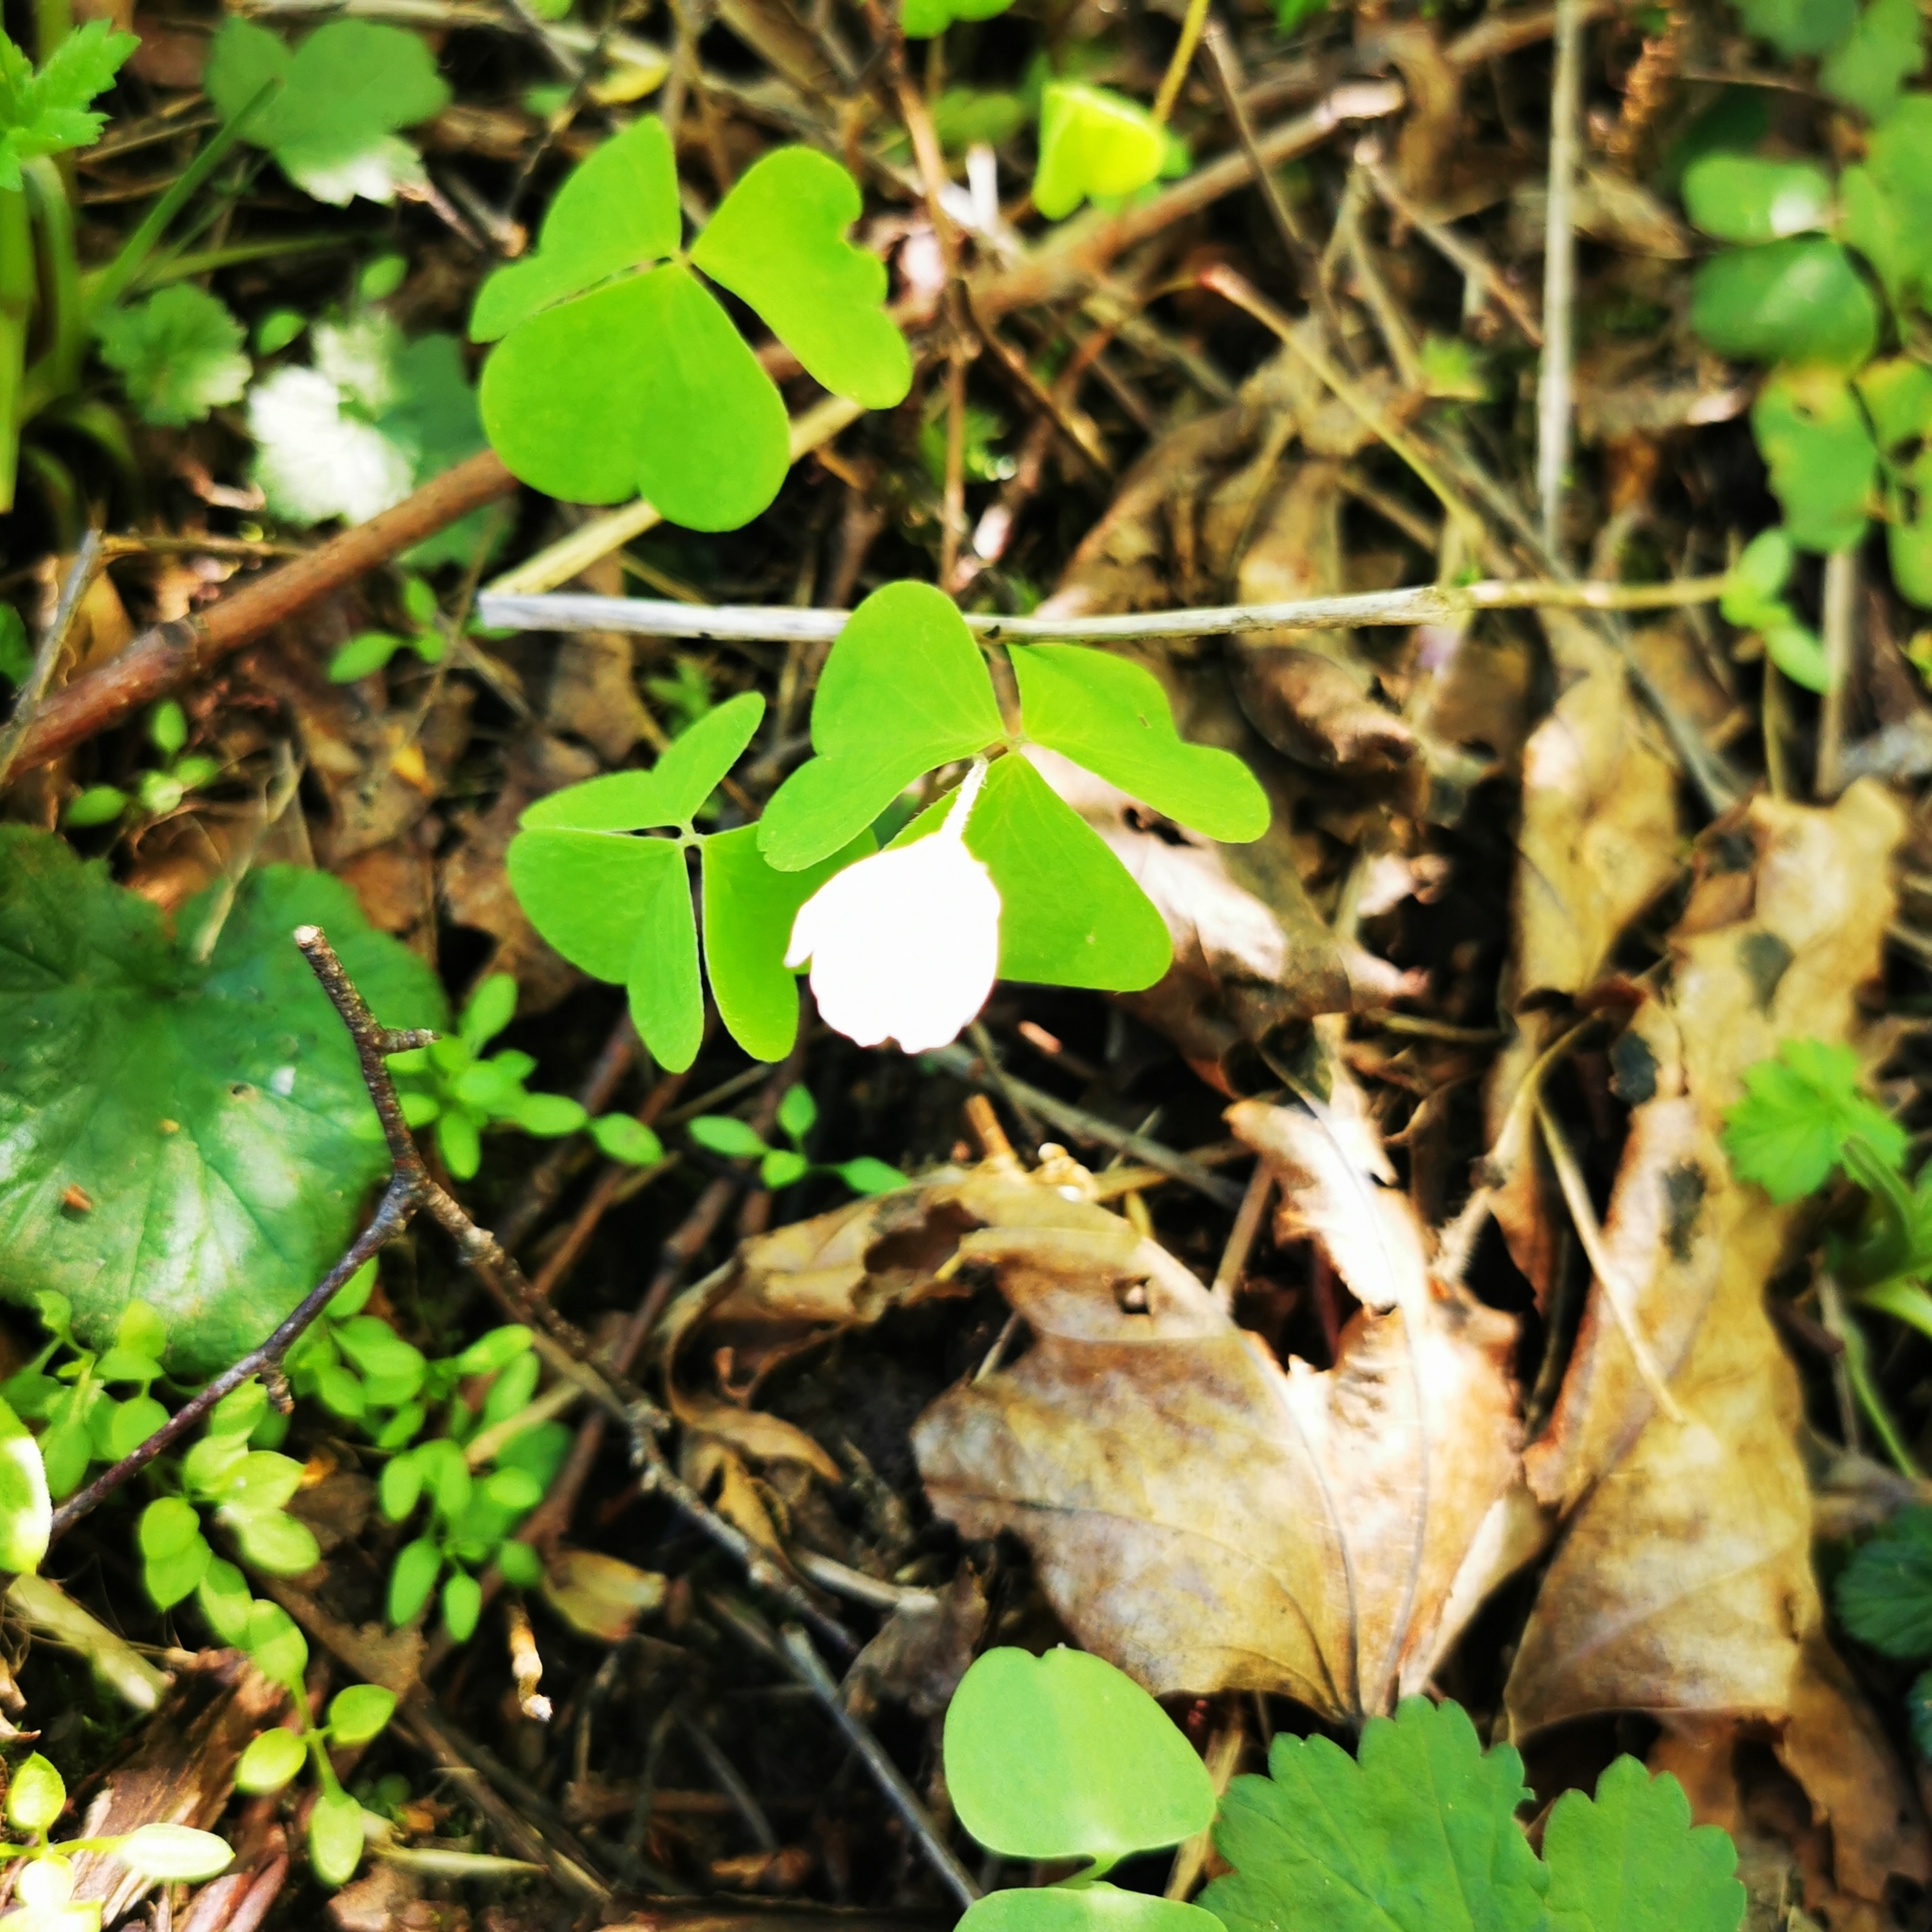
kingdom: Plantae
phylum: Tracheophyta
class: Magnoliopsida
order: Oxalidales
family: Oxalidaceae
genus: Oxalis
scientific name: Oxalis acetosella
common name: Wood-sorrel
